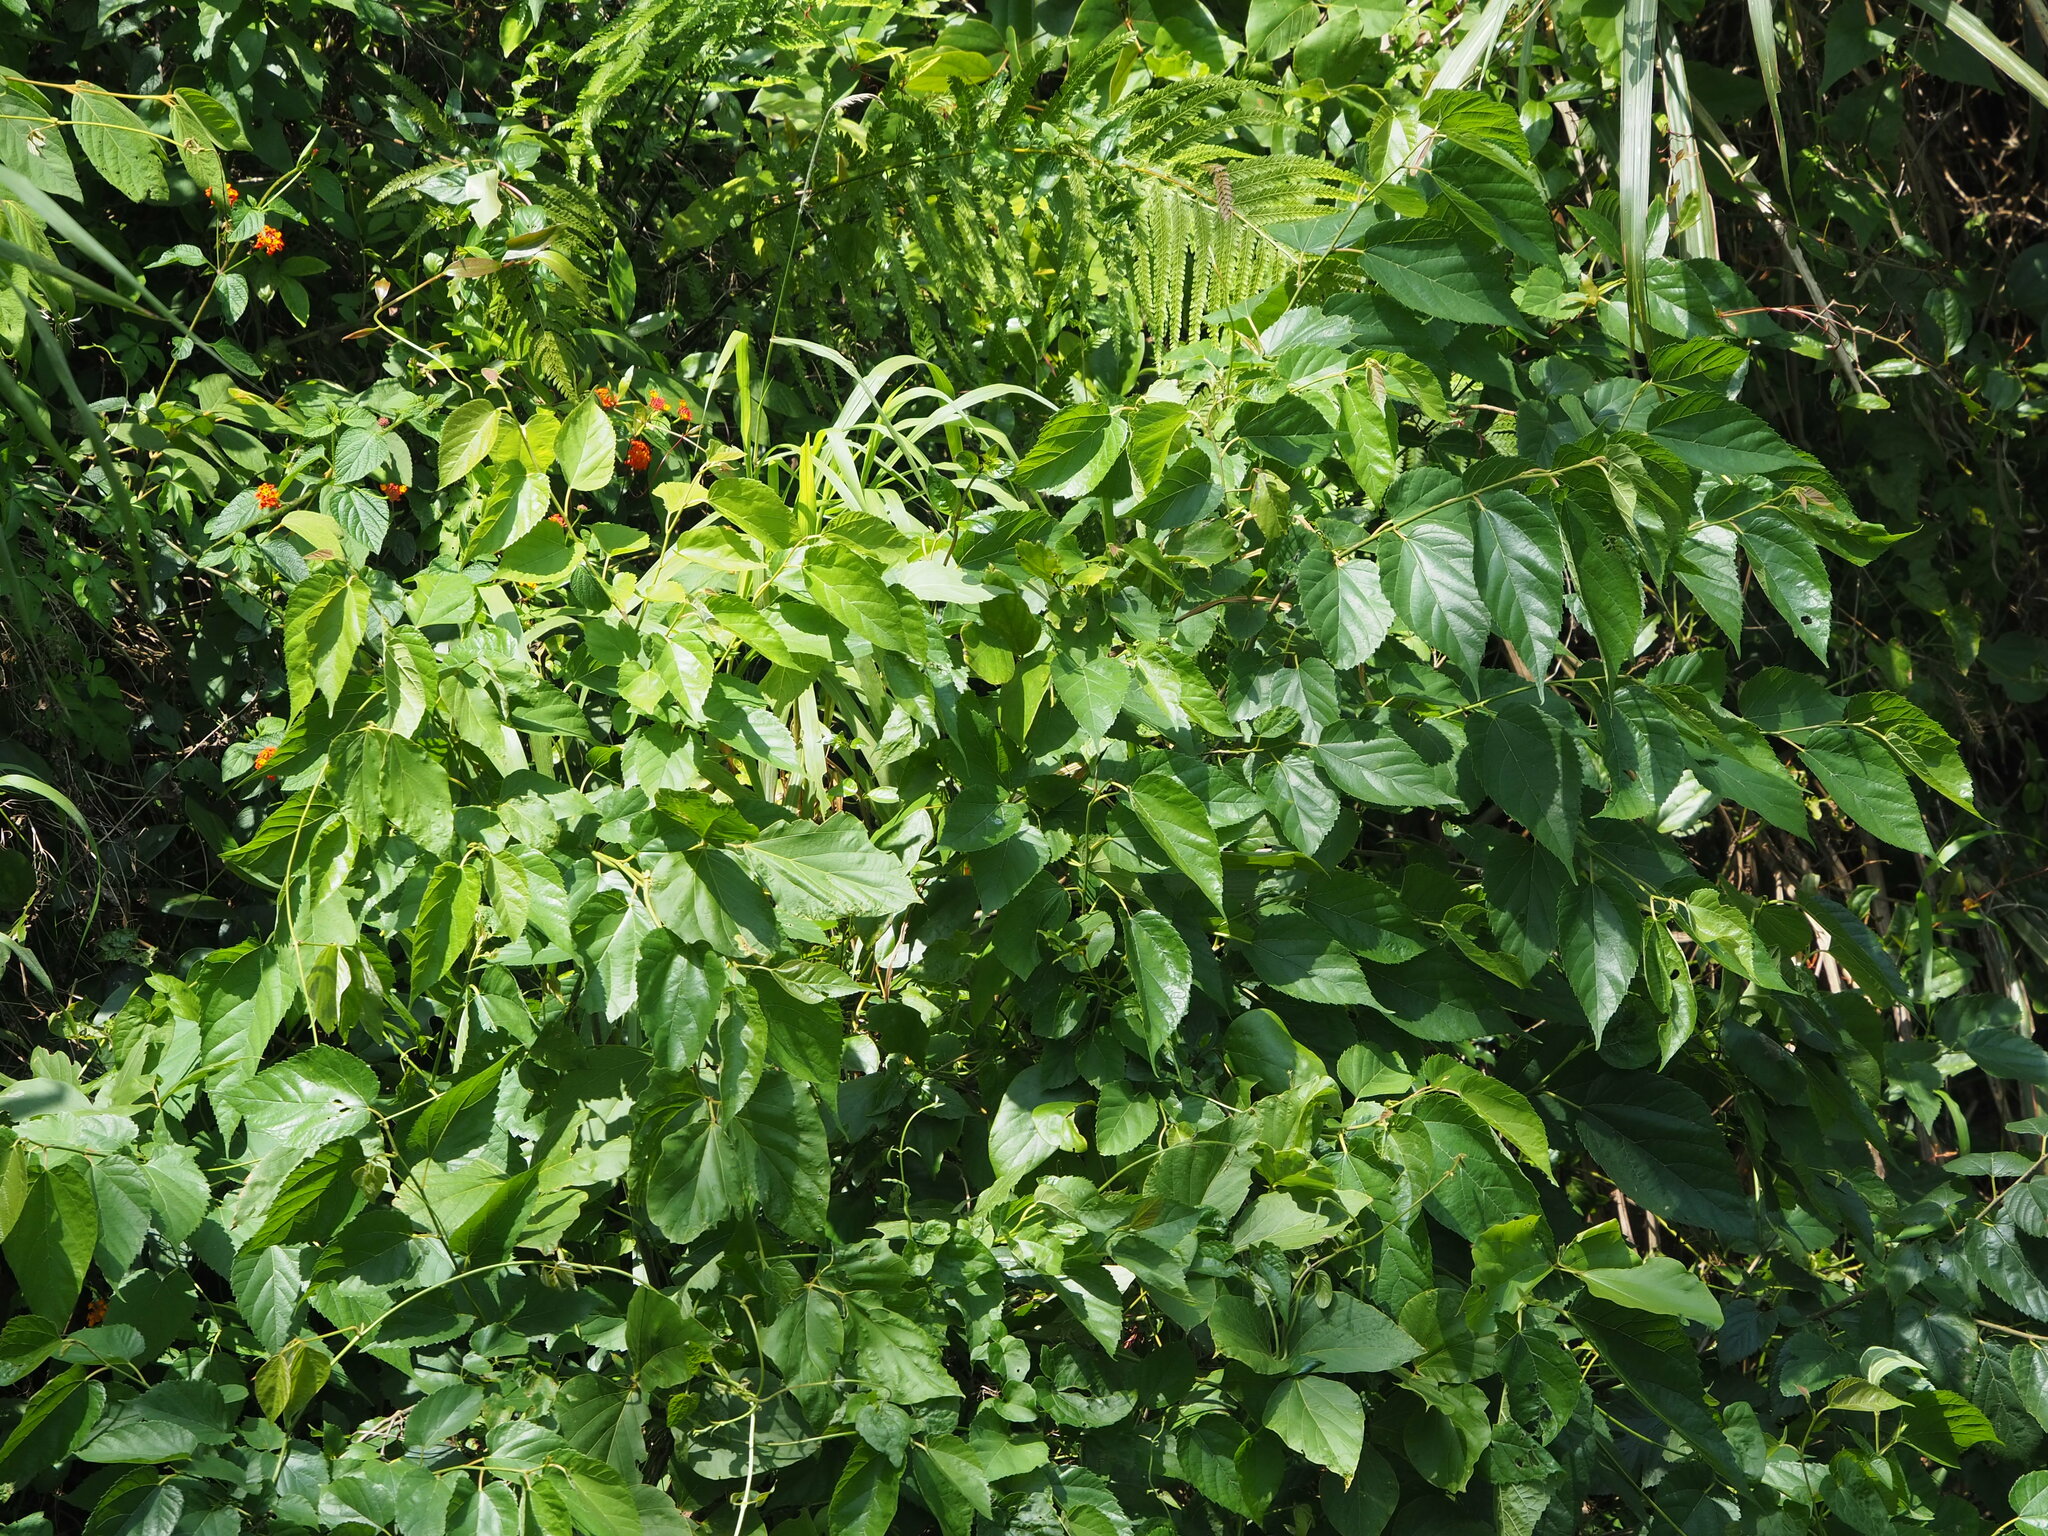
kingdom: Plantae
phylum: Tracheophyta
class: Magnoliopsida
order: Rosales
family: Moraceae
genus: Morus
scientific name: Morus indica
